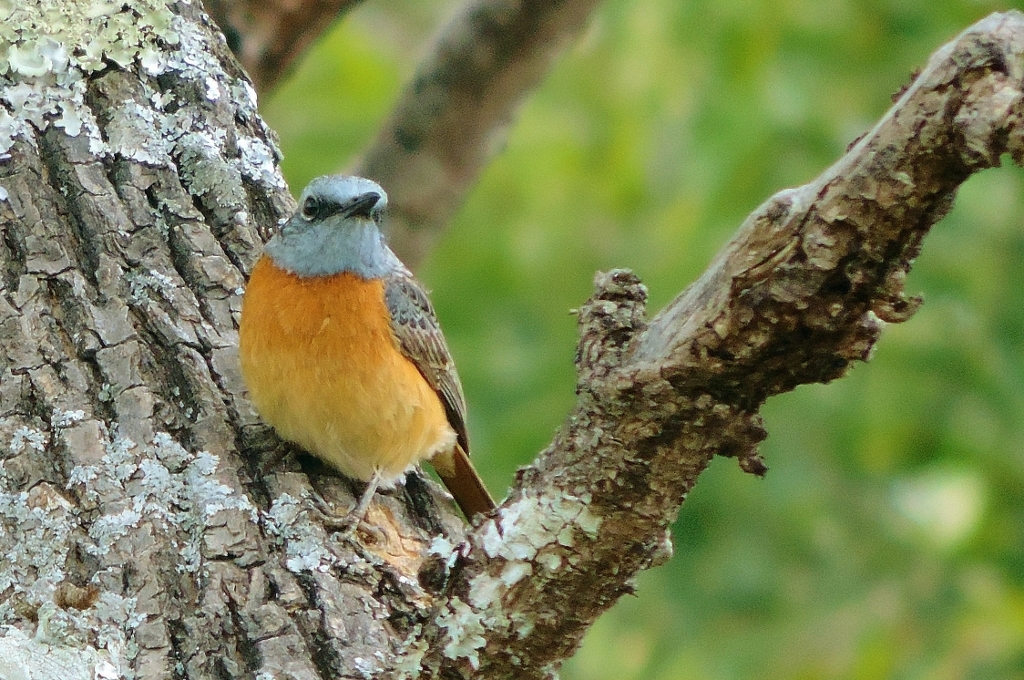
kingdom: Animalia
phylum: Chordata
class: Aves
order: Passeriformes
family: Muscicapidae
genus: Monticola
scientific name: Monticola angolensis
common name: Miombo rock thrush
